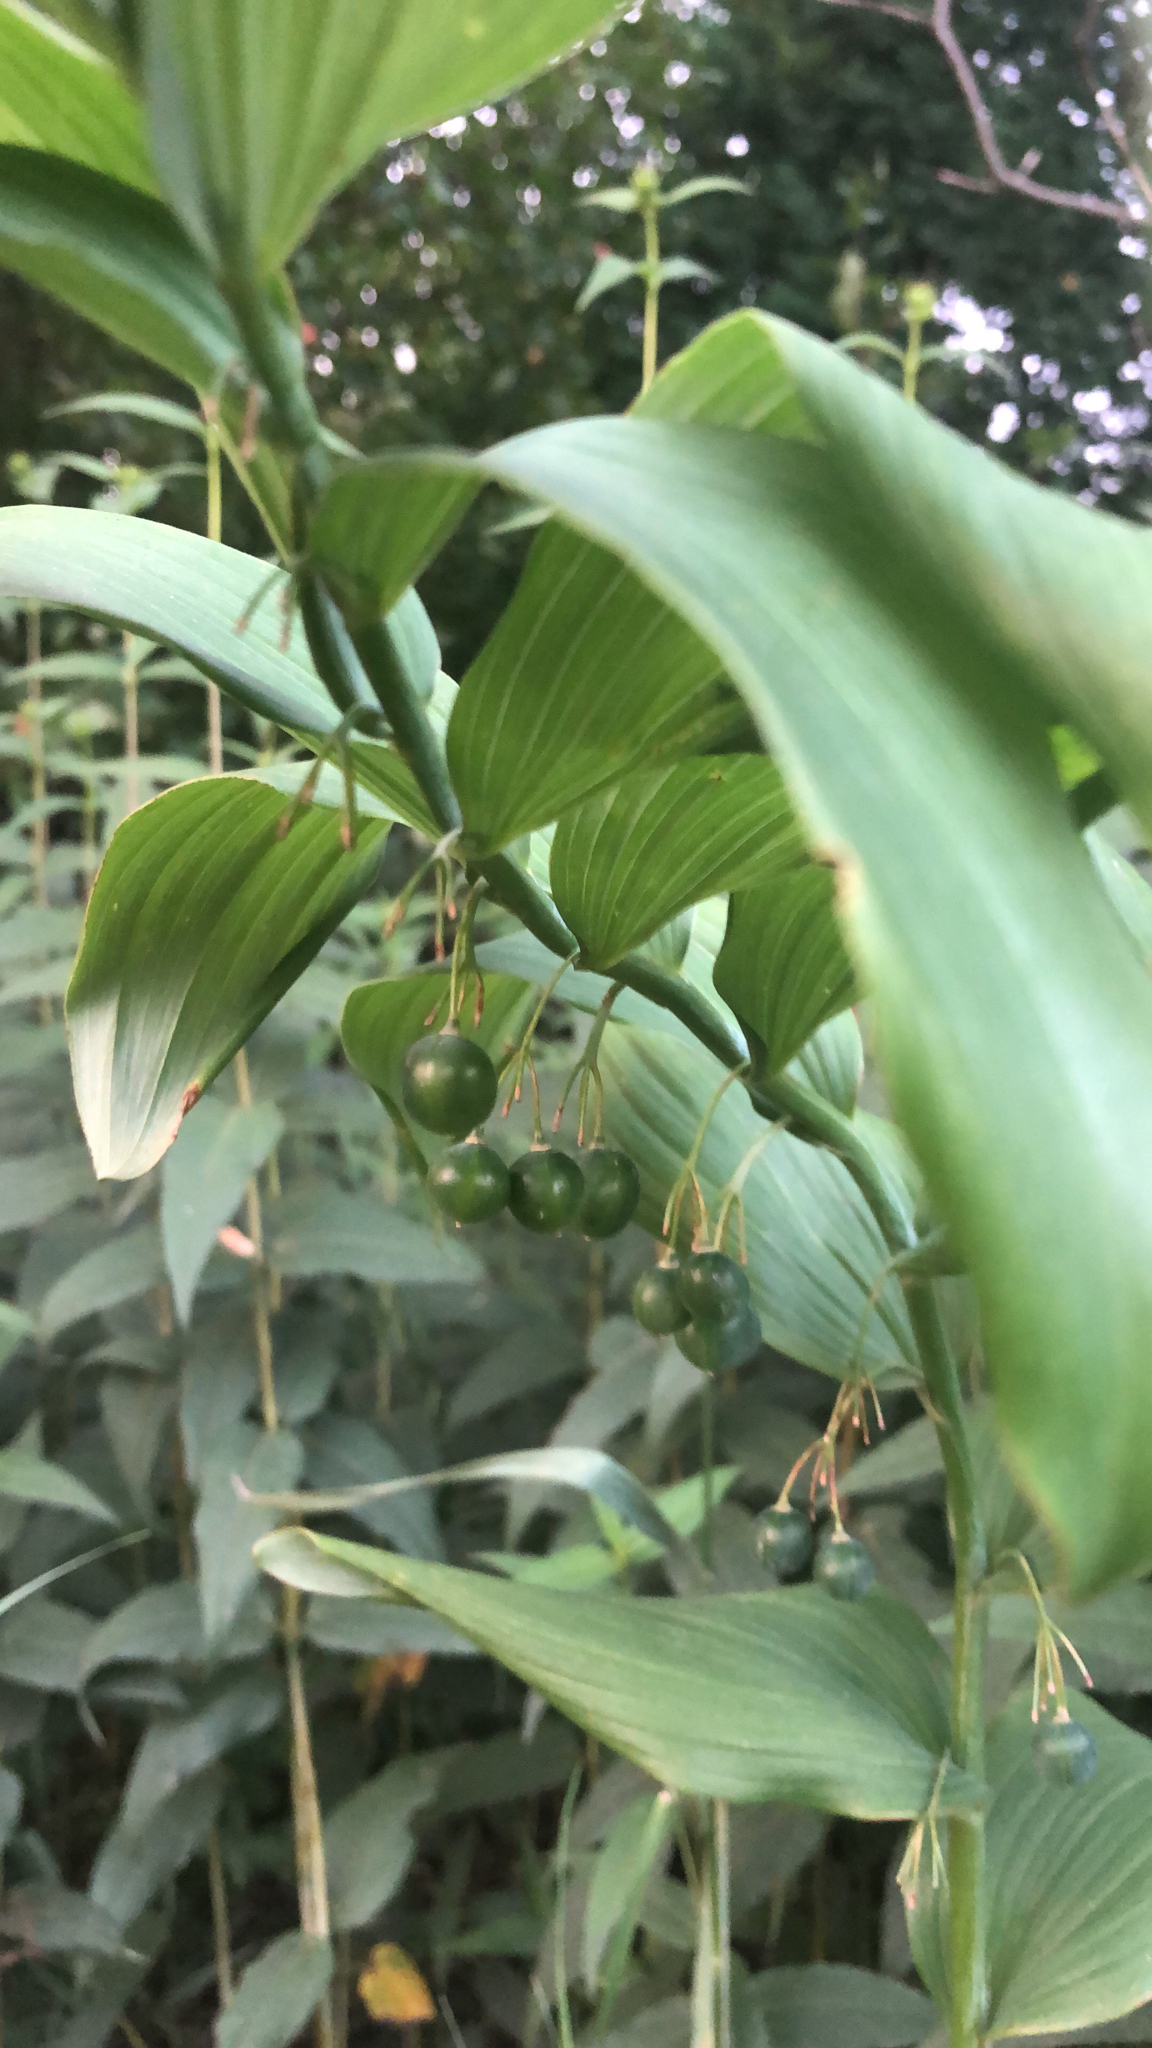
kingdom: Plantae
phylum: Tracheophyta
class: Liliopsida
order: Asparagales
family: Asparagaceae
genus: Polygonatum
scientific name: Polygonatum biflorum
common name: American solomon's-seal
